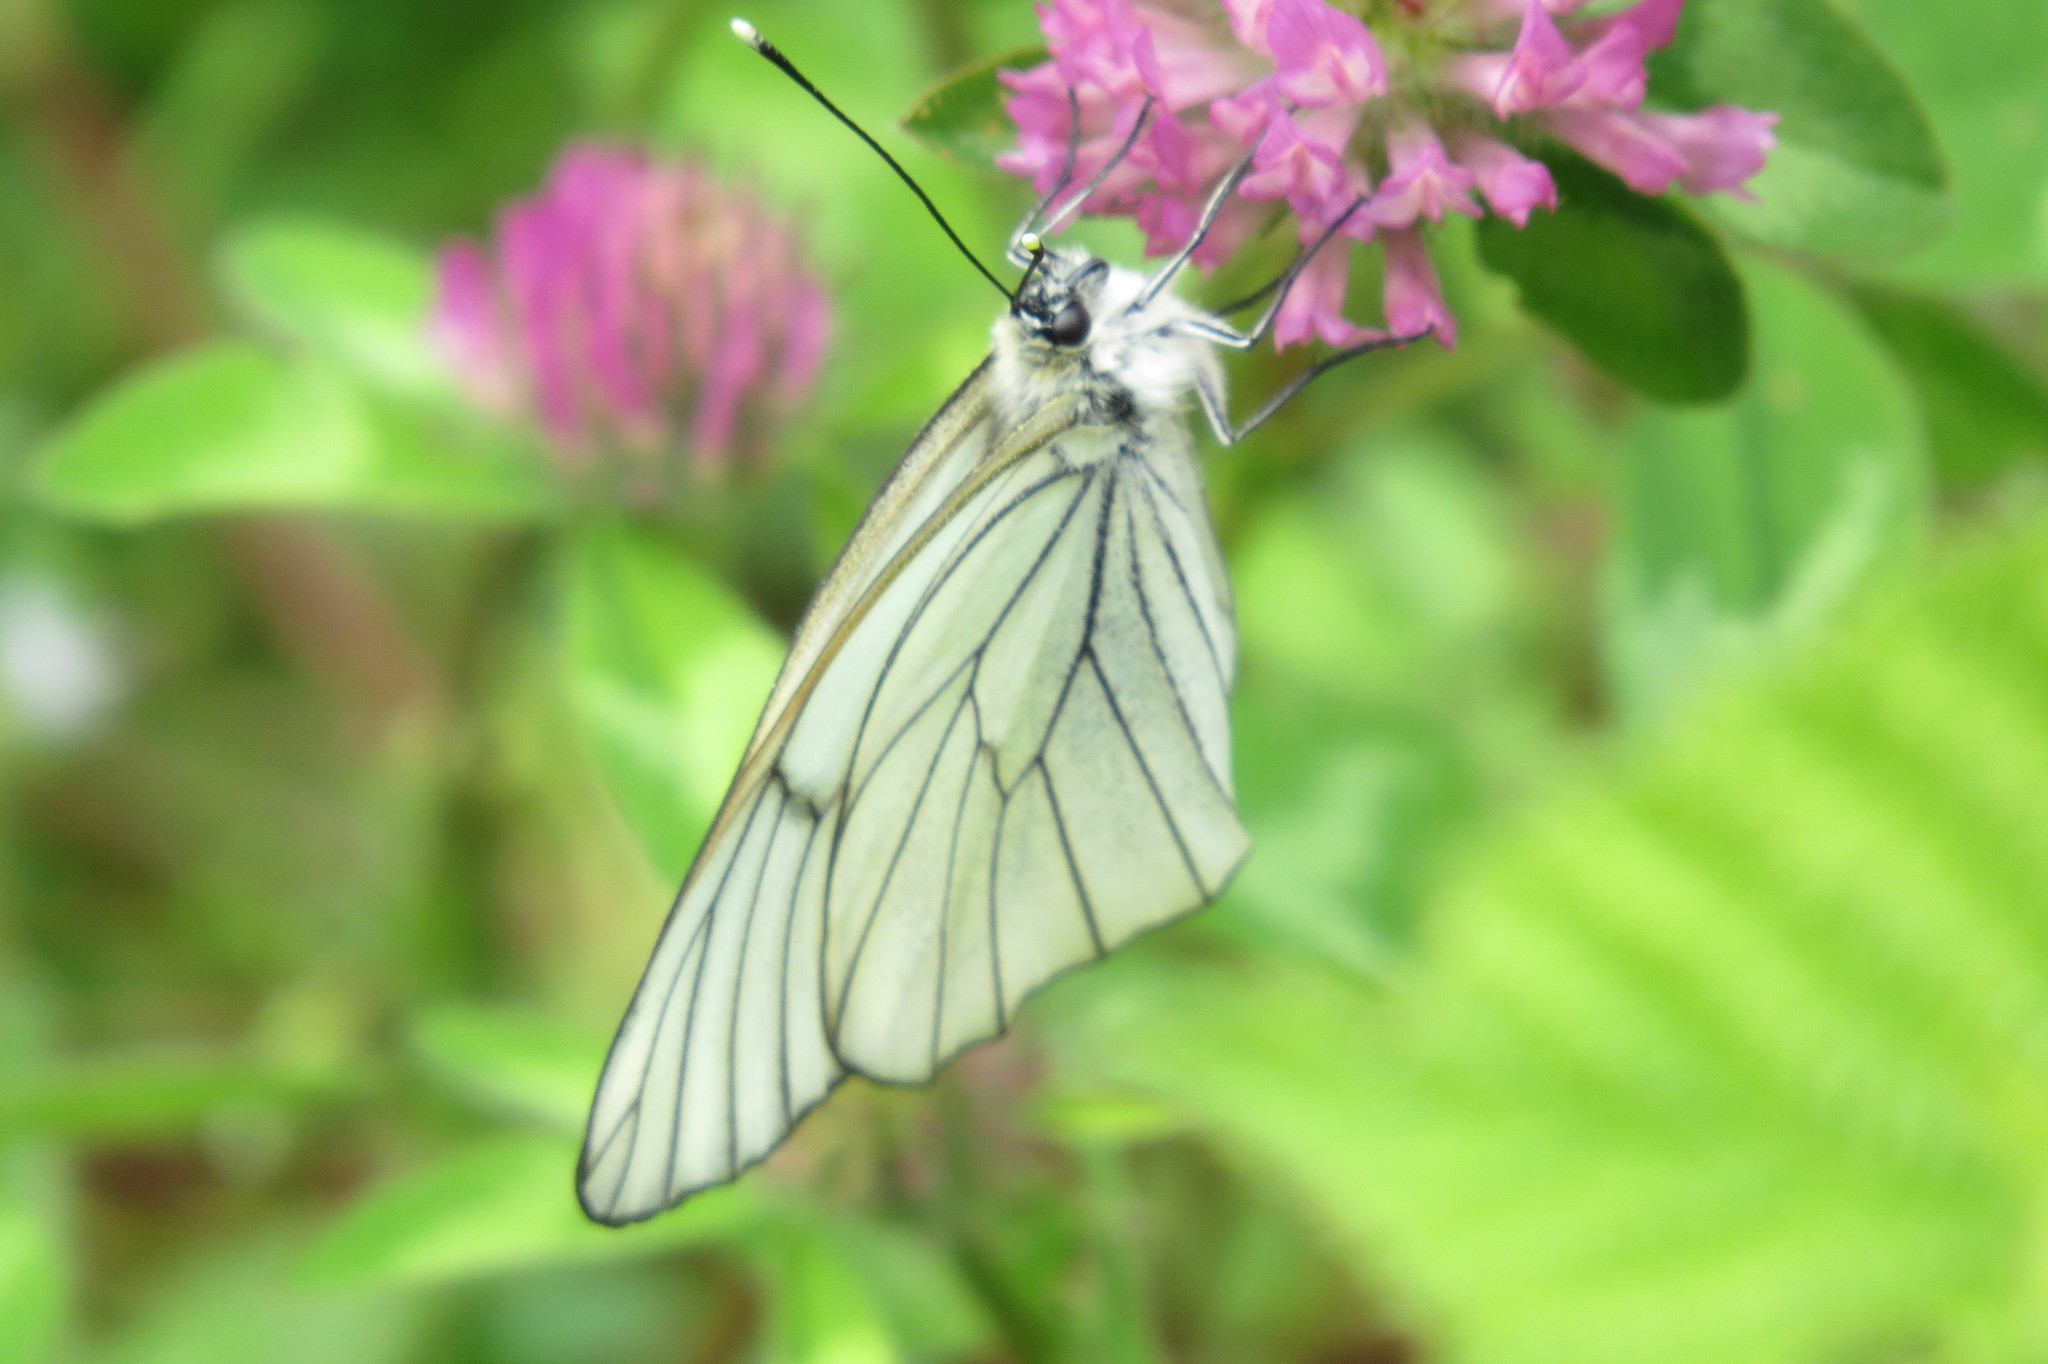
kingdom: Animalia
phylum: Arthropoda
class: Insecta
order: Lepidoptera
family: Pieridae
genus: Aporia
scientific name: Aporia crataegi
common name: Black-veined white
